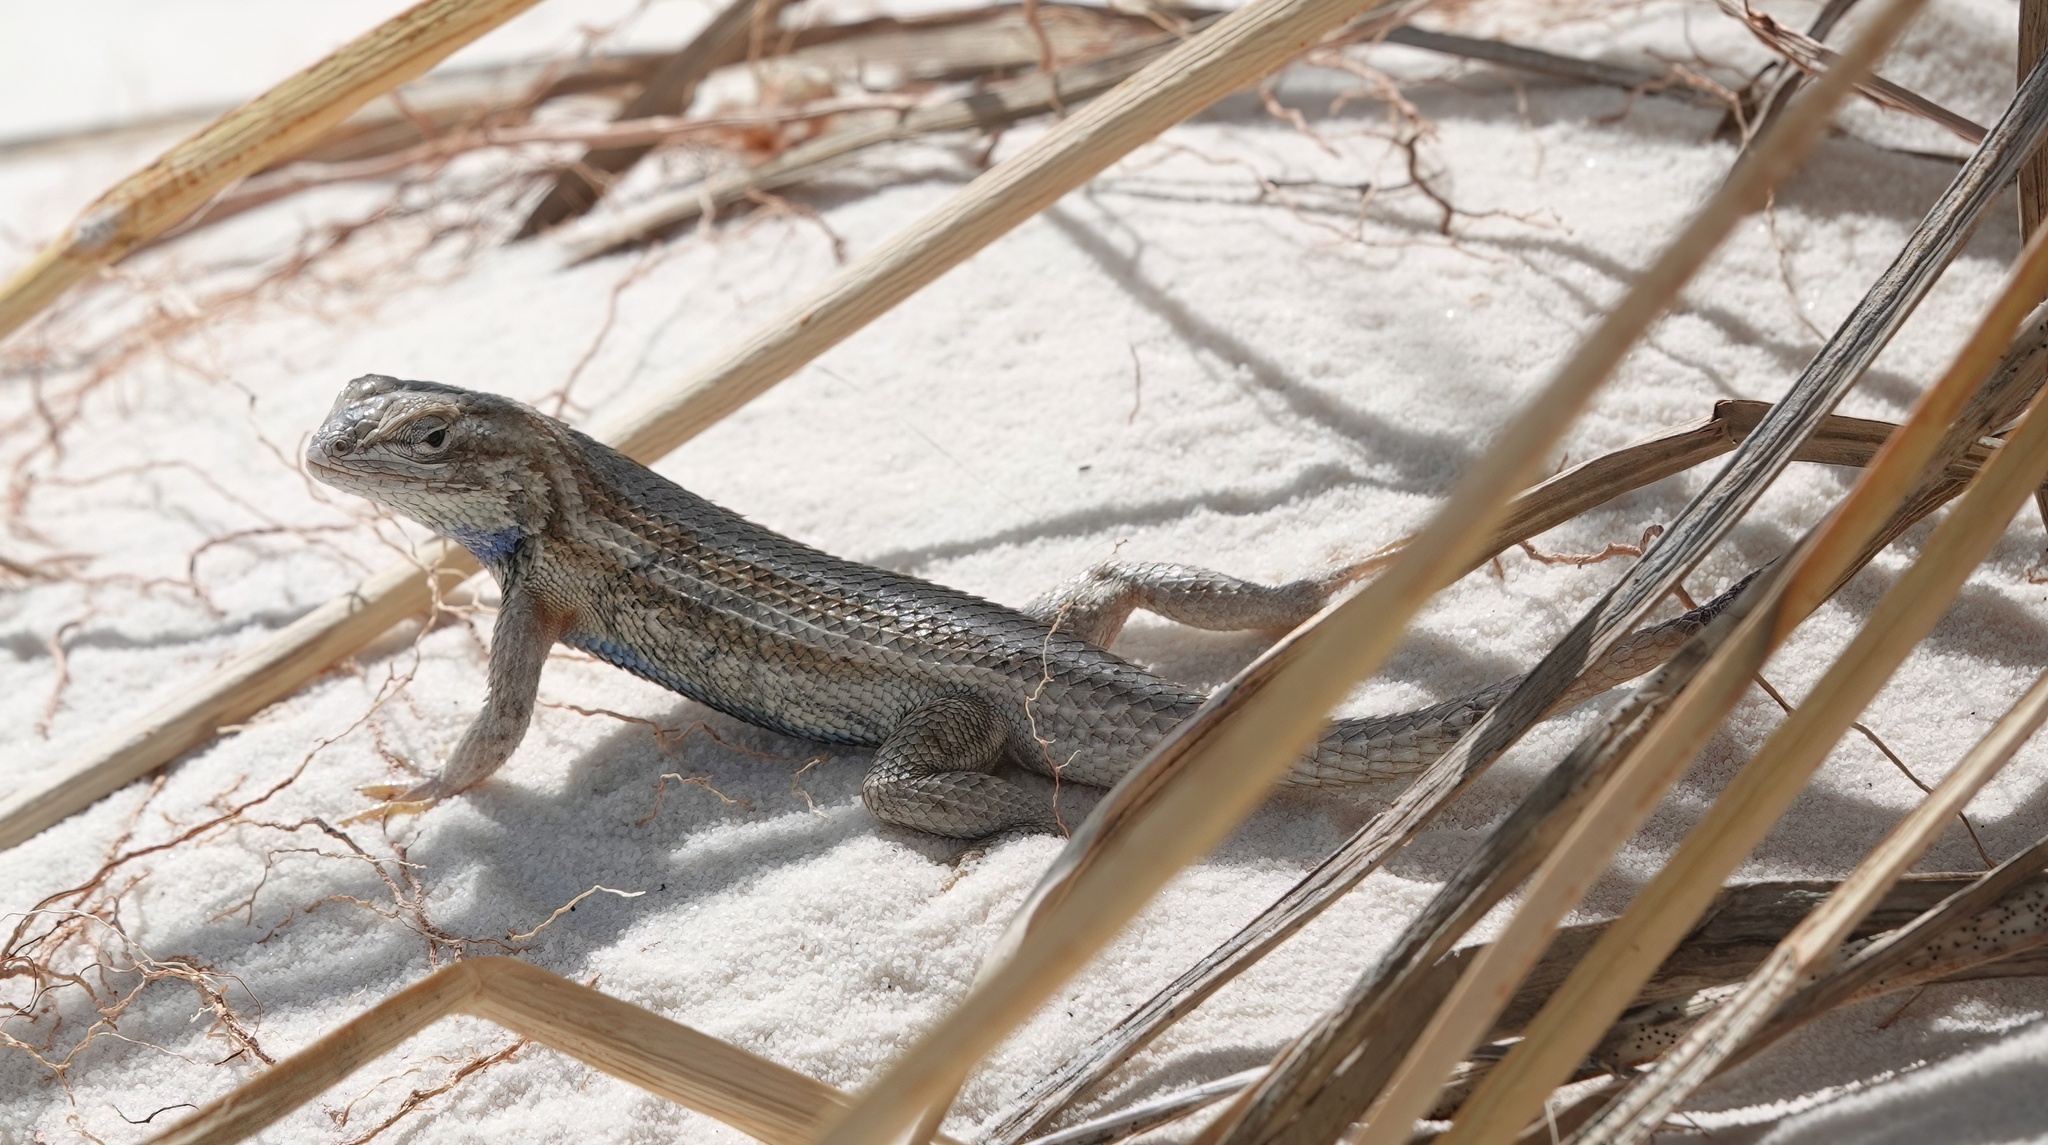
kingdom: Animalia
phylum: Chordata
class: Squamata
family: Phrynosomatidae
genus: Sceloporus
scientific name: Sceloporus cowlesi
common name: White sands prairie lizard
